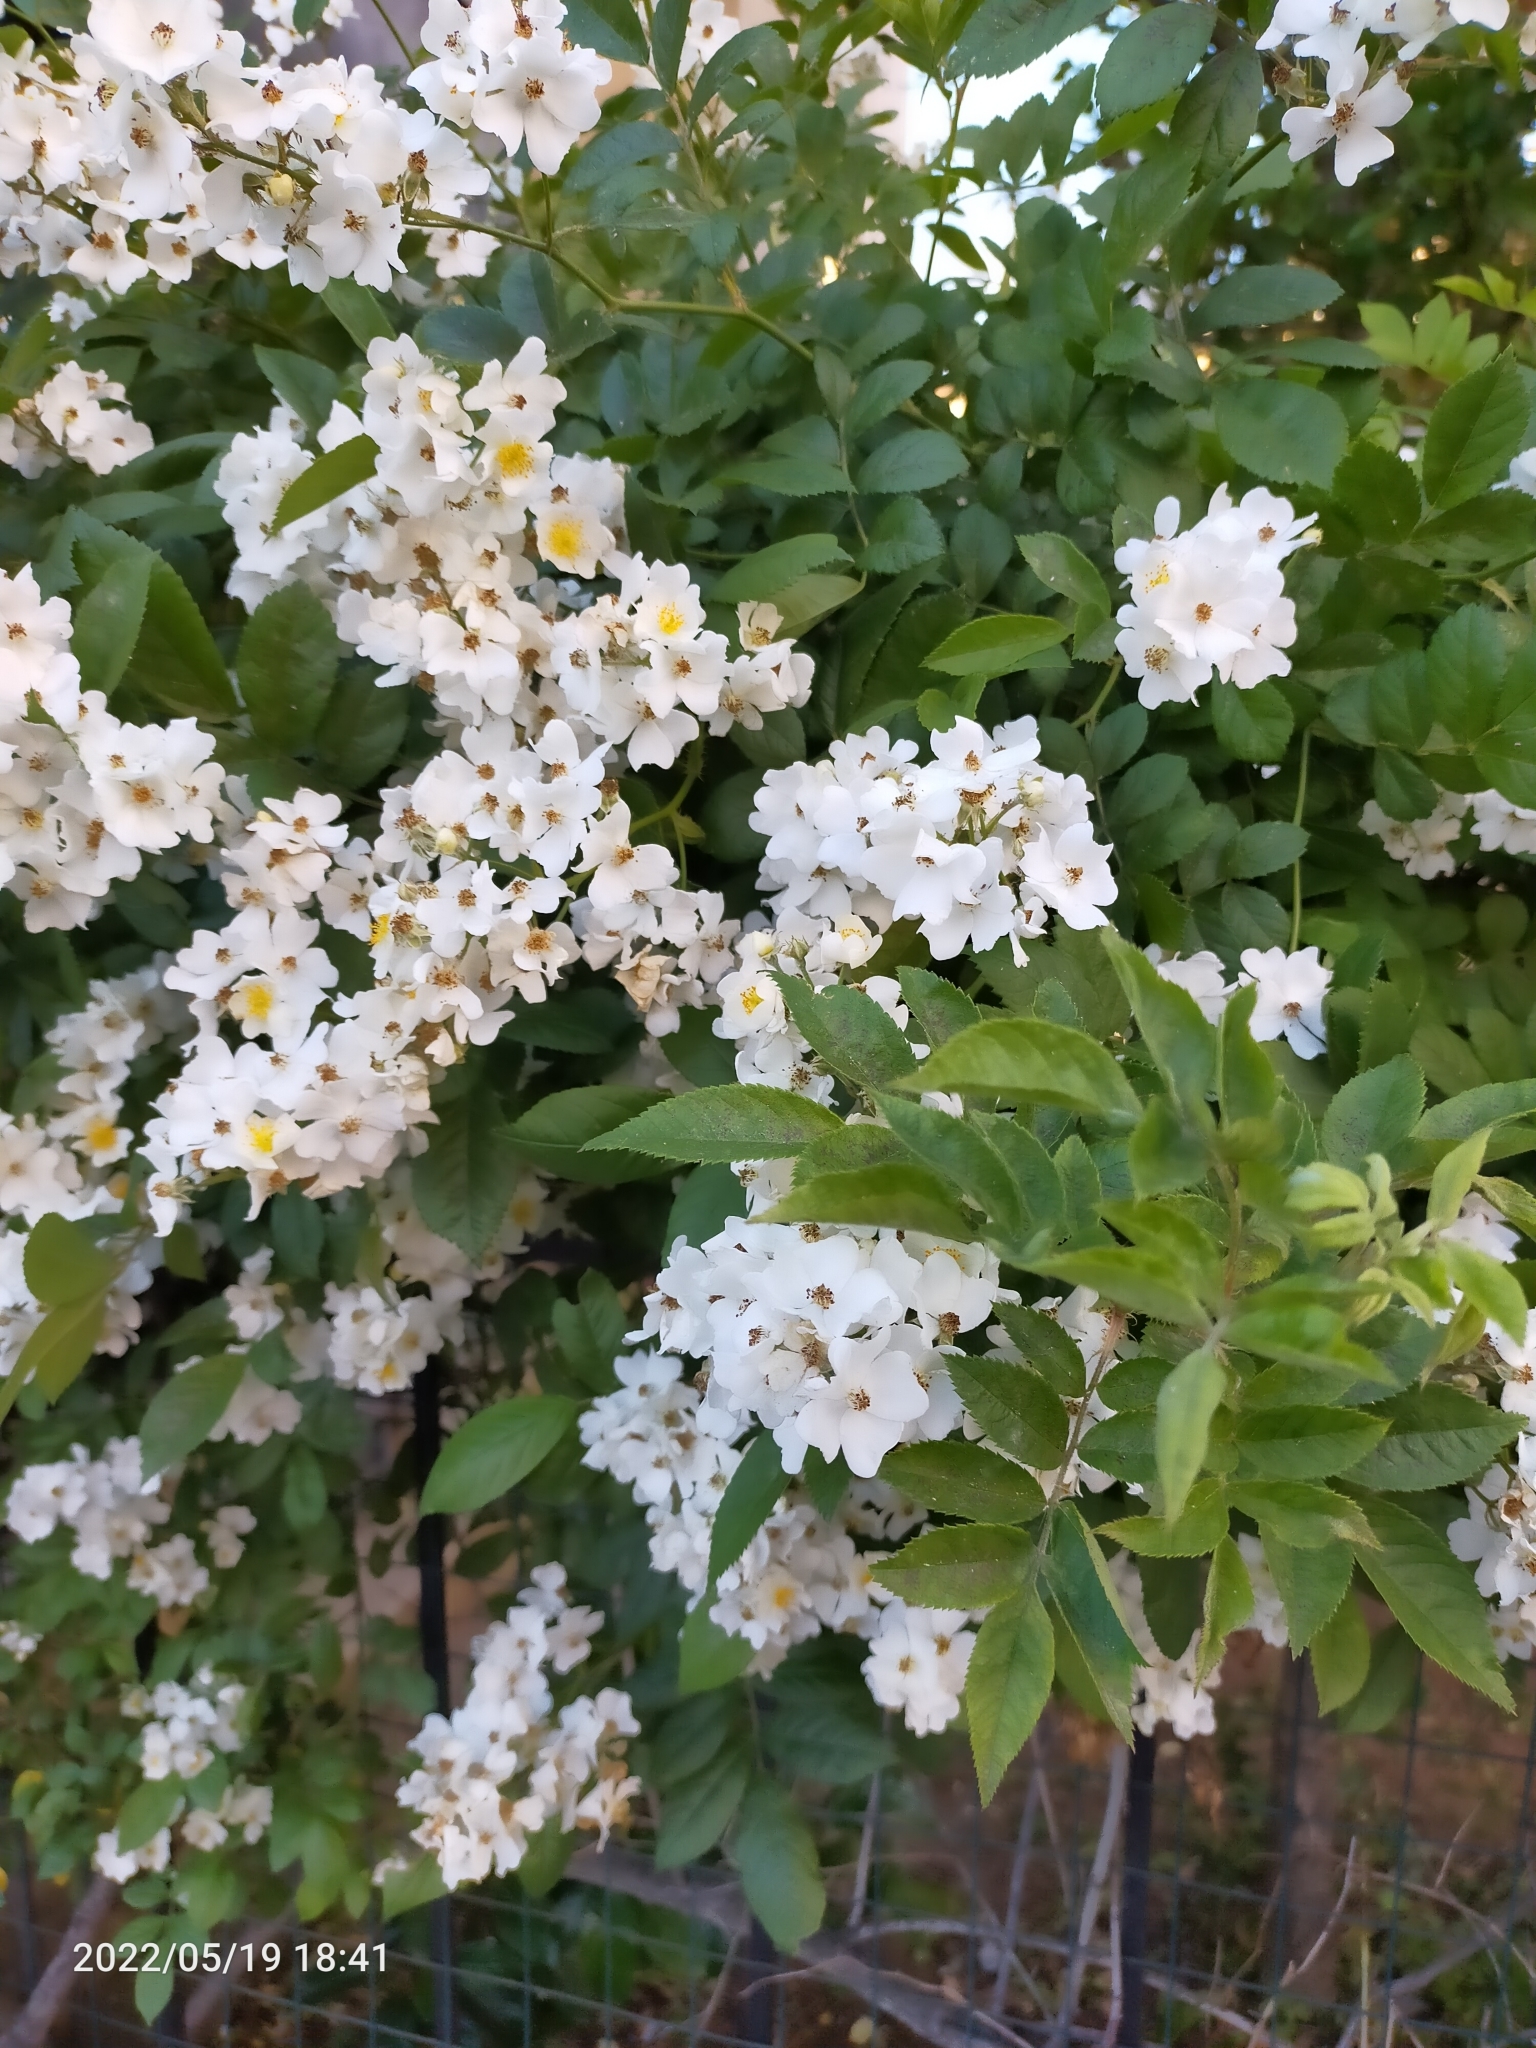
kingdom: Plantae
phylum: Tracheophyta
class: Magnoliopsida
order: Rosales
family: Rosaceae
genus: Rosa
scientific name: Rosa multiflora
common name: Multiflora rose
